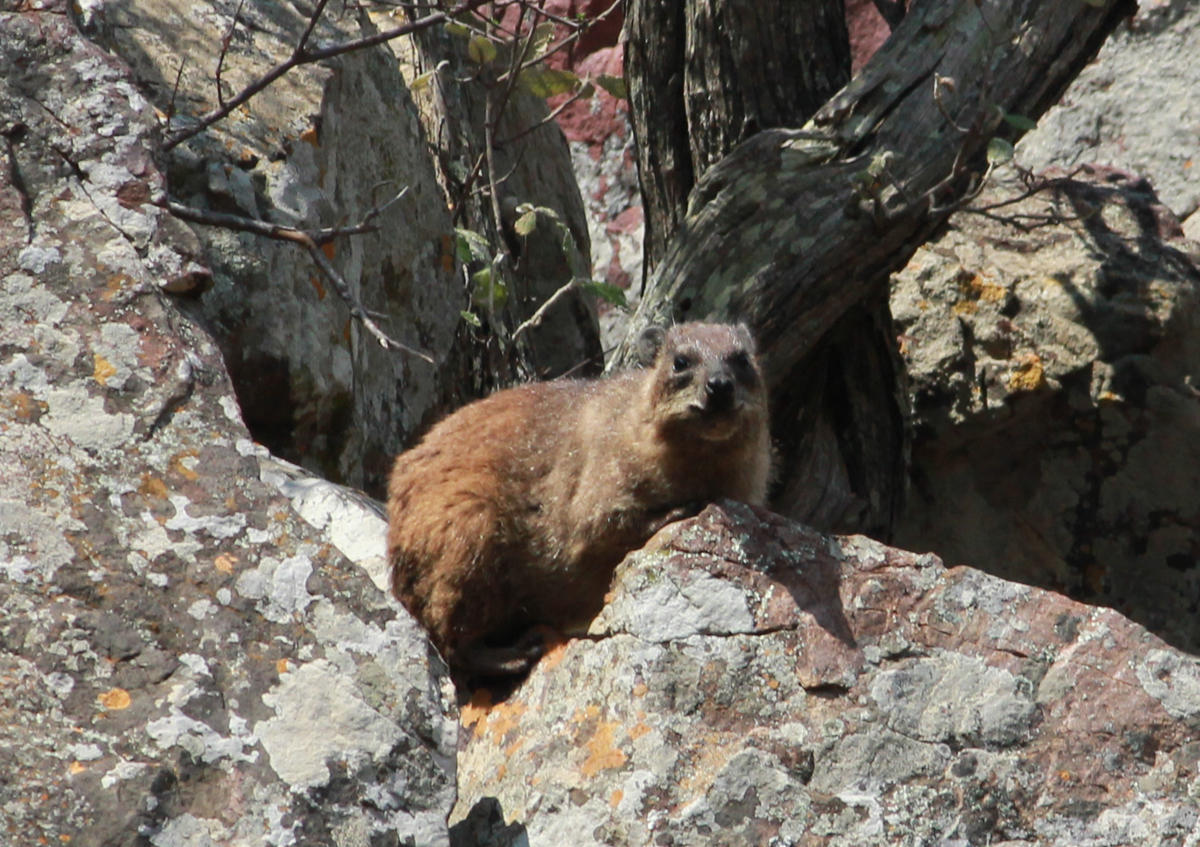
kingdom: Animalia
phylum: Chordata
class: Mammalia
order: Hyracoidea
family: Procaviidae
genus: Procavia
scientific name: Procavia capensis
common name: Rock hyrax
